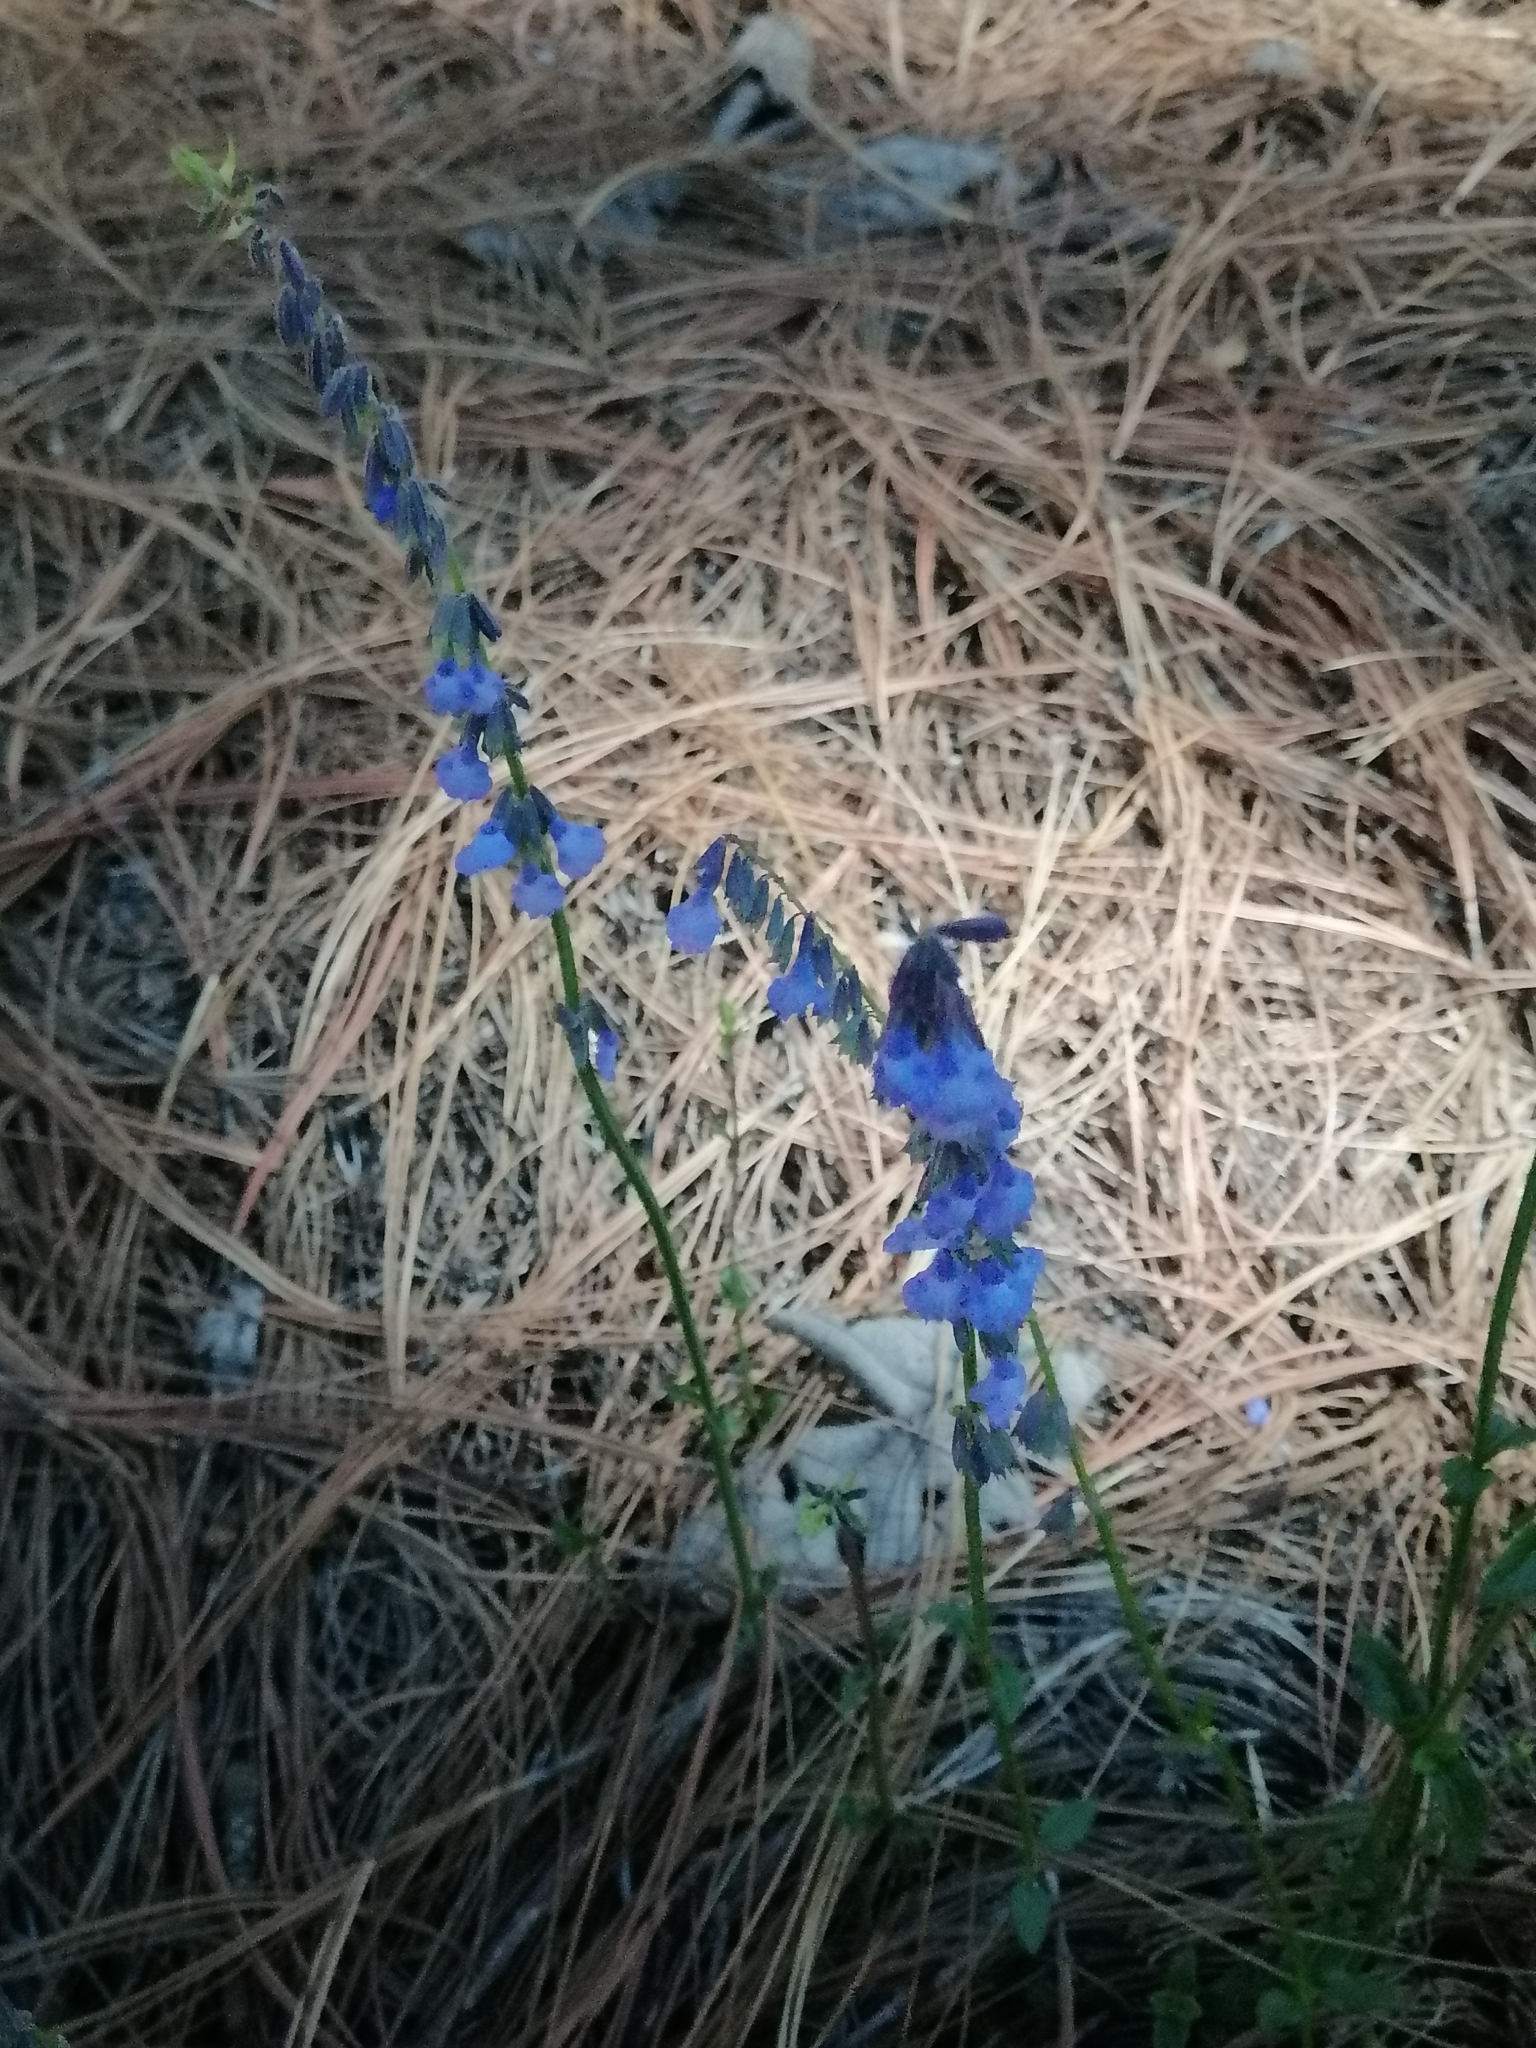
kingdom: Plantae
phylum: Tracheophyta
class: Magnoliopsida
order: Lamiales
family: Lamiaceae
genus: Salvia
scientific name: Salvia helianthemifolia
